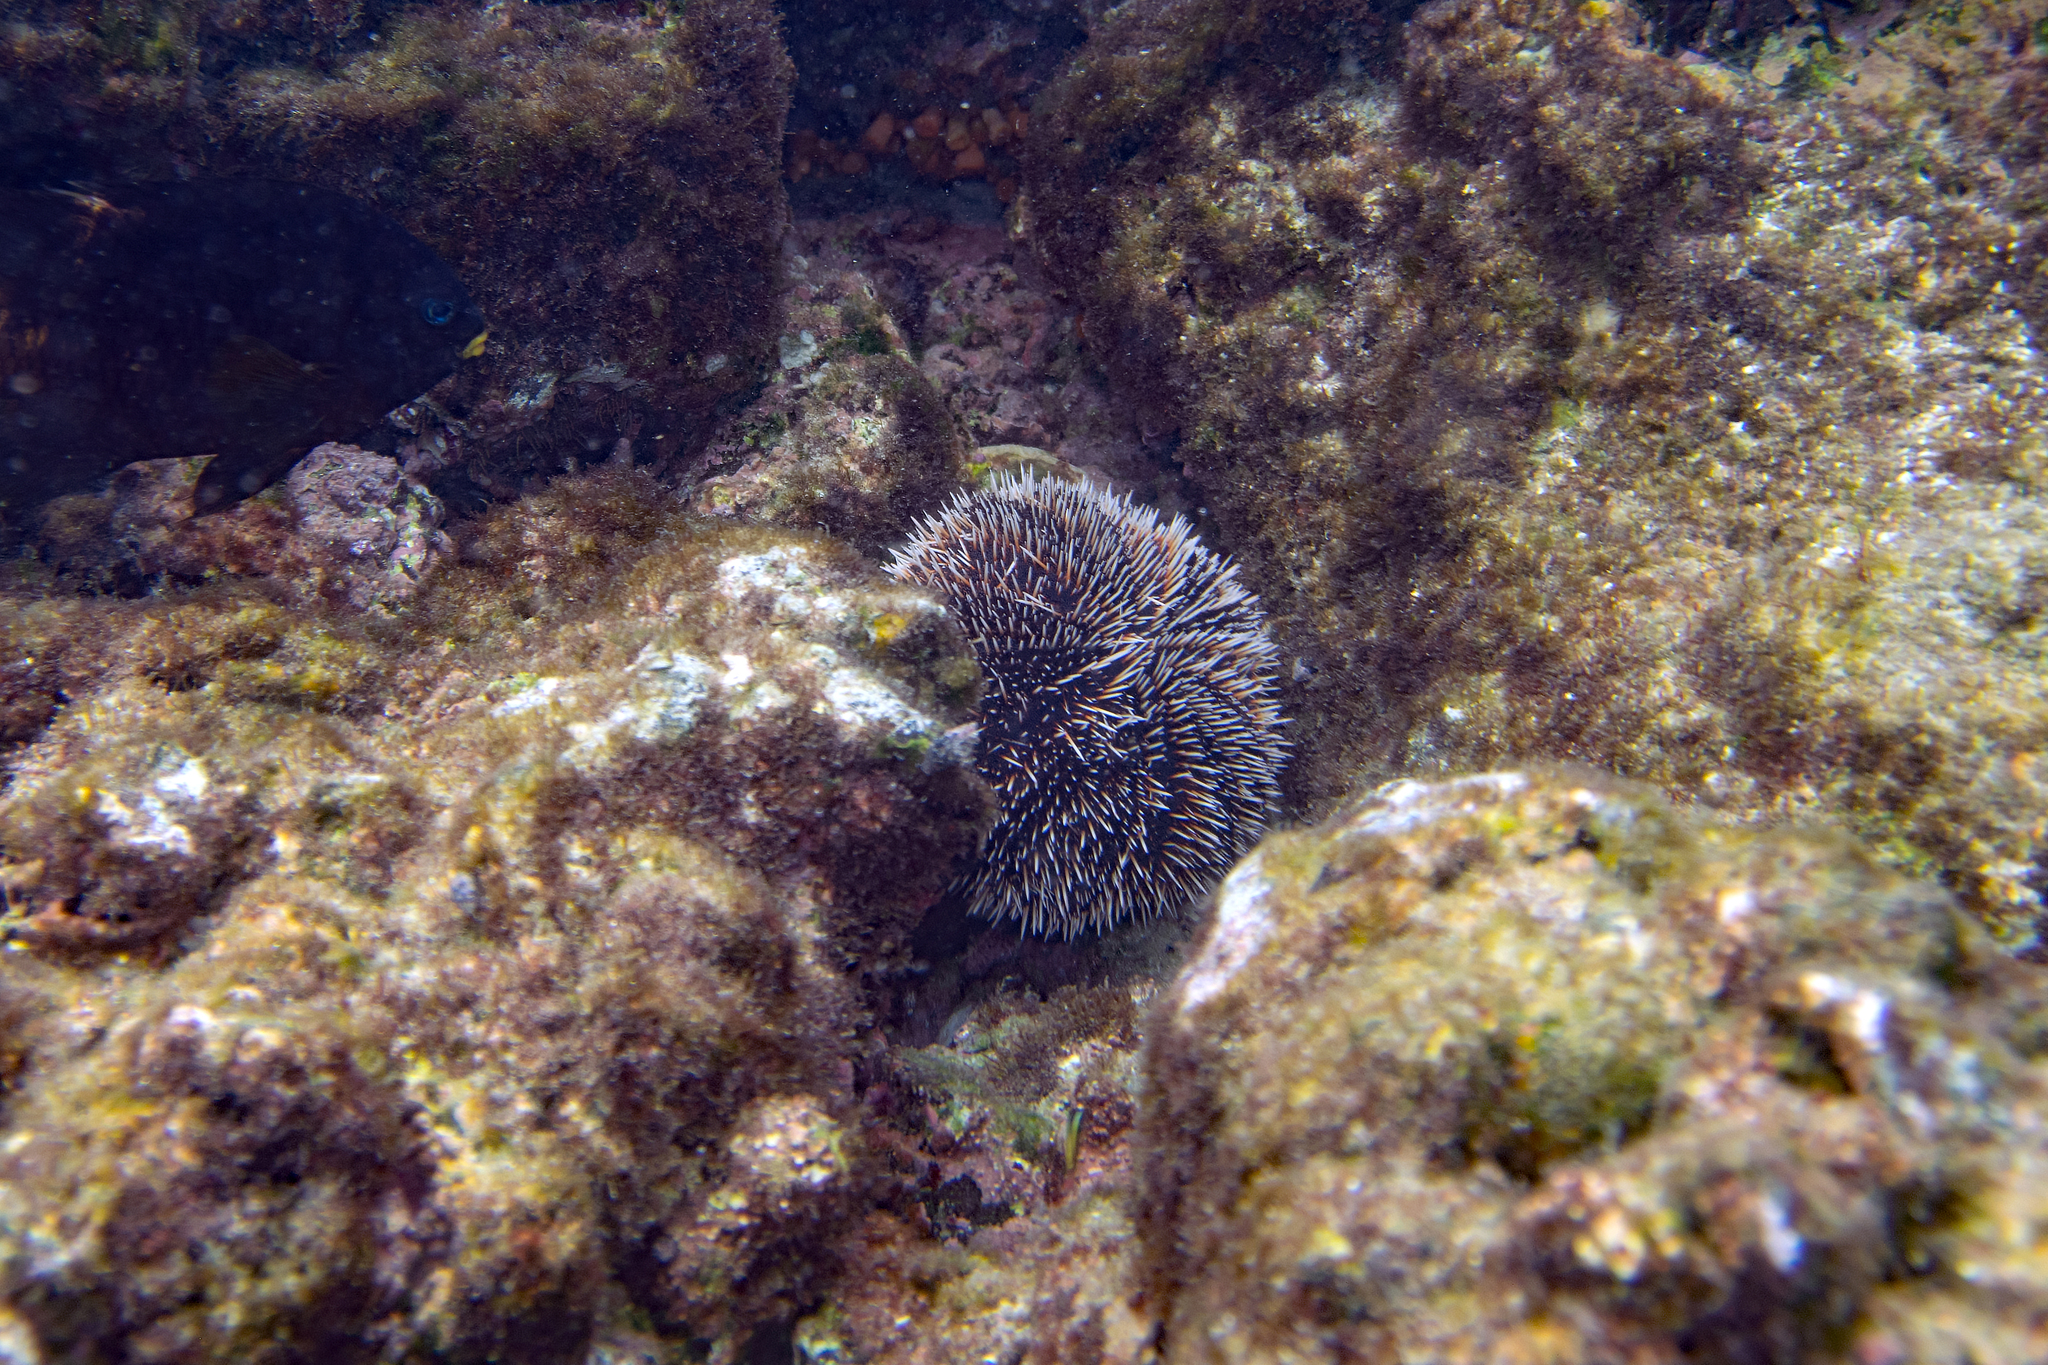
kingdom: Animalia
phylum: Echinodermata
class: Echinoidea
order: Camarodonta
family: Toxopneustidae
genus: Tripneustes
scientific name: Tripneustes depressus
